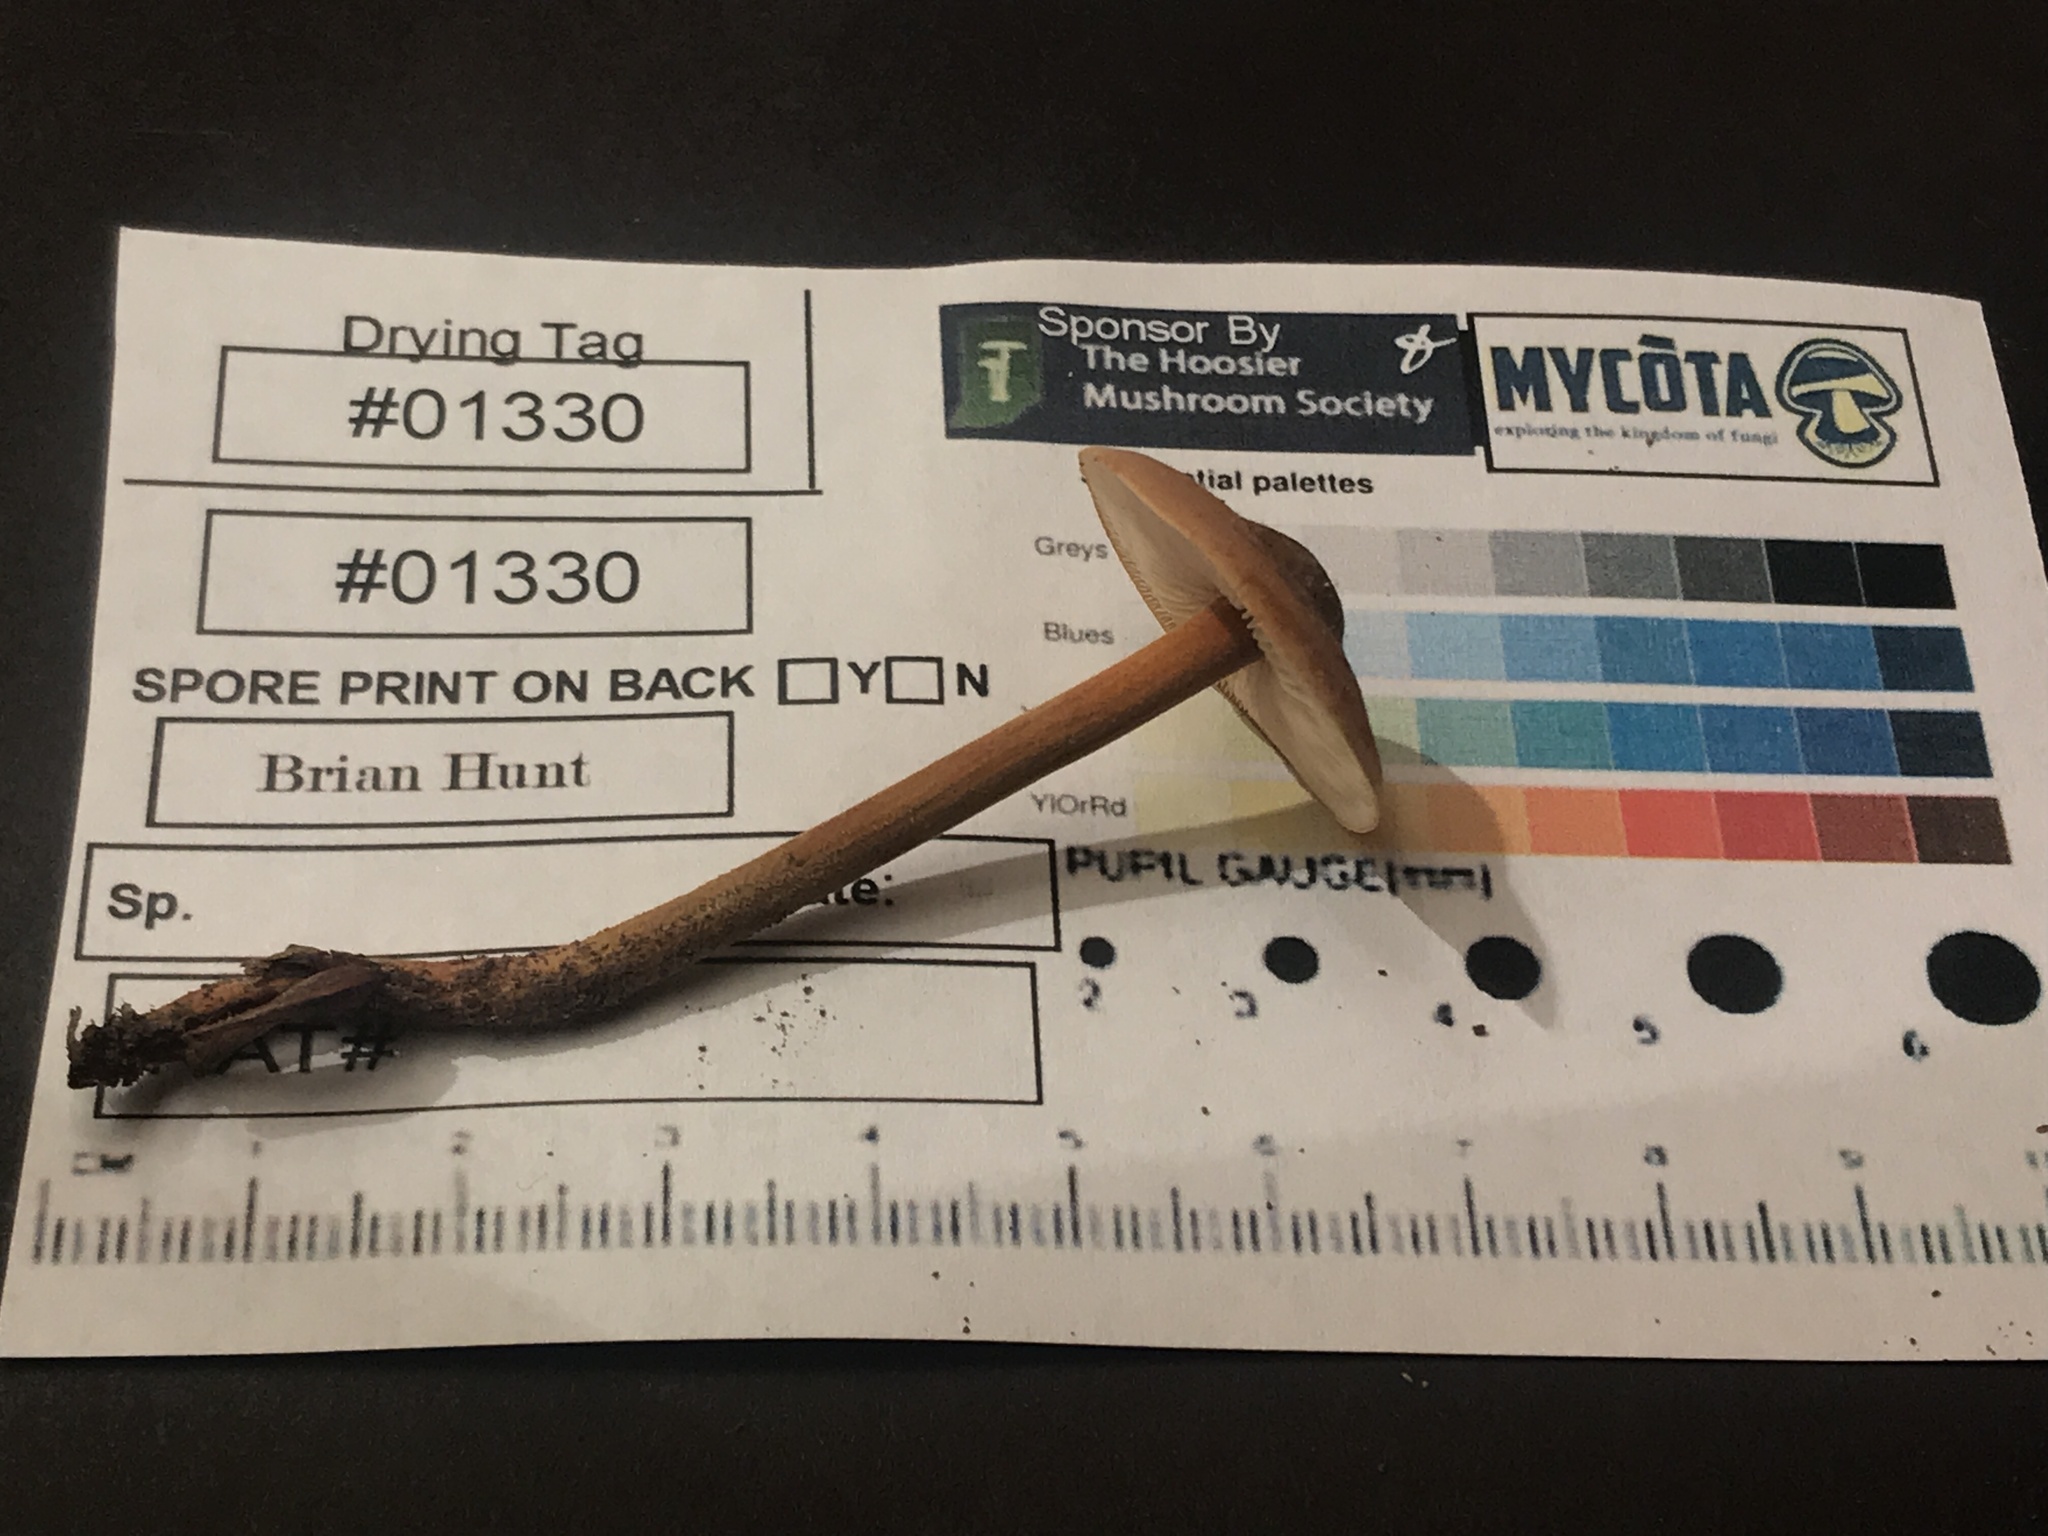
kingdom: Fungi
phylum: Basidiomycota
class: Agaricomycetes
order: Agaricales
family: Mycenaceae
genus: Xeromphalina
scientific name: Xeromphalina tenuipes
